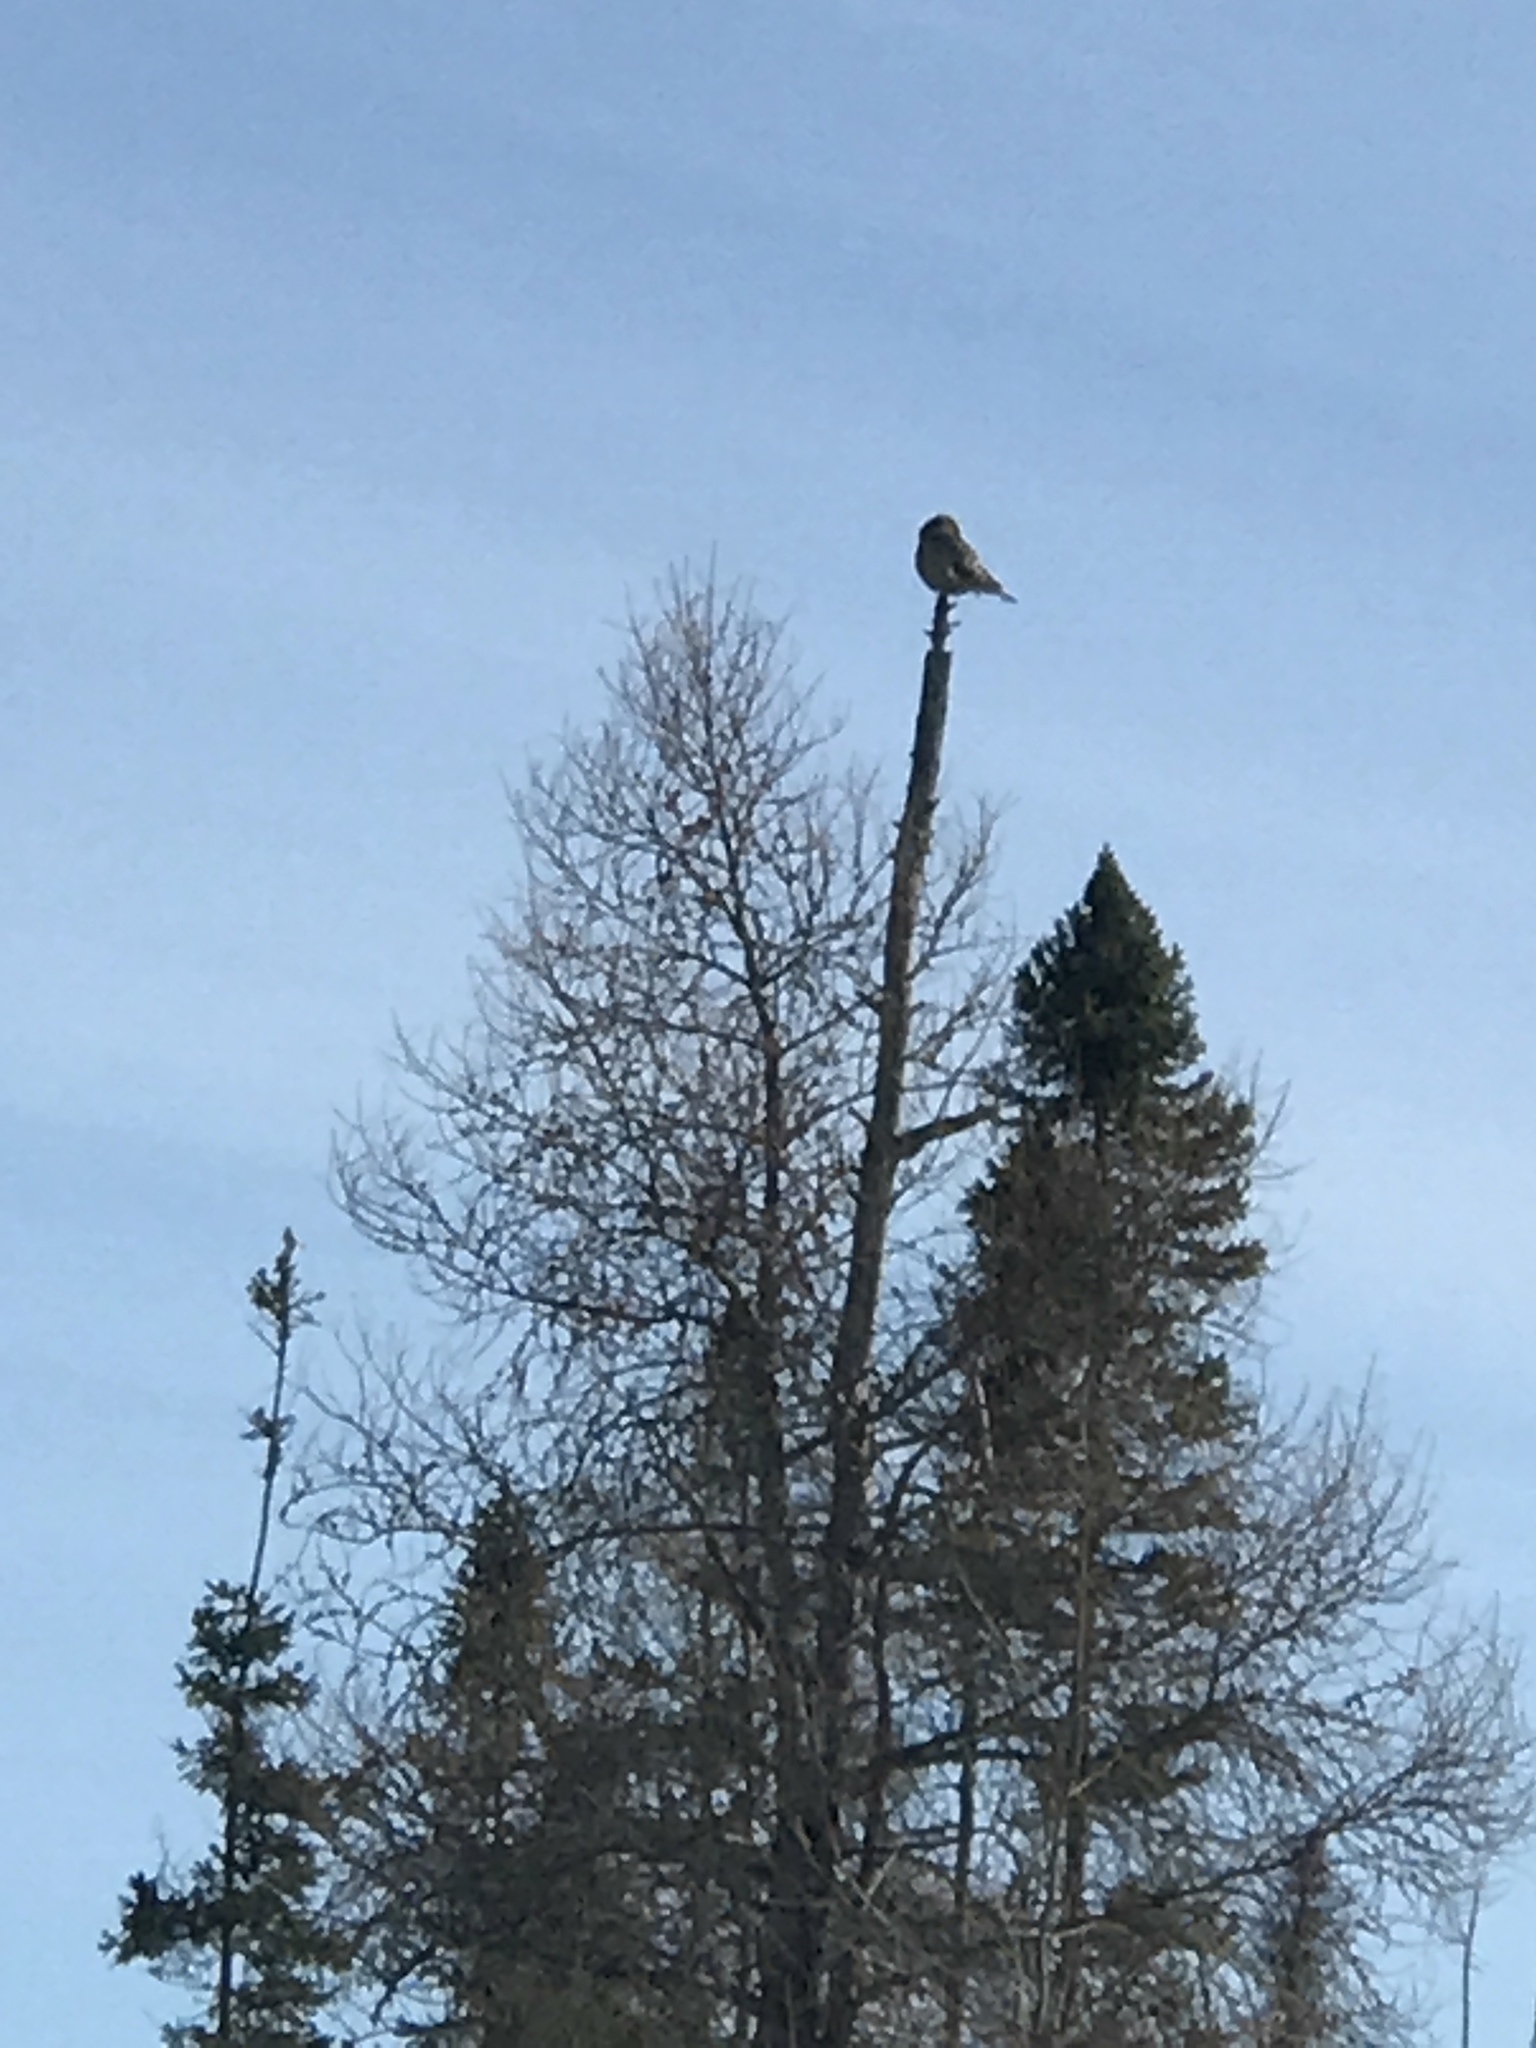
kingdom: Animalia
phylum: Chordata
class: Aves
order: Strigiformes
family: Strigidae
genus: Surnia
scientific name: Surnia ulula
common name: Northern hawk-owl
